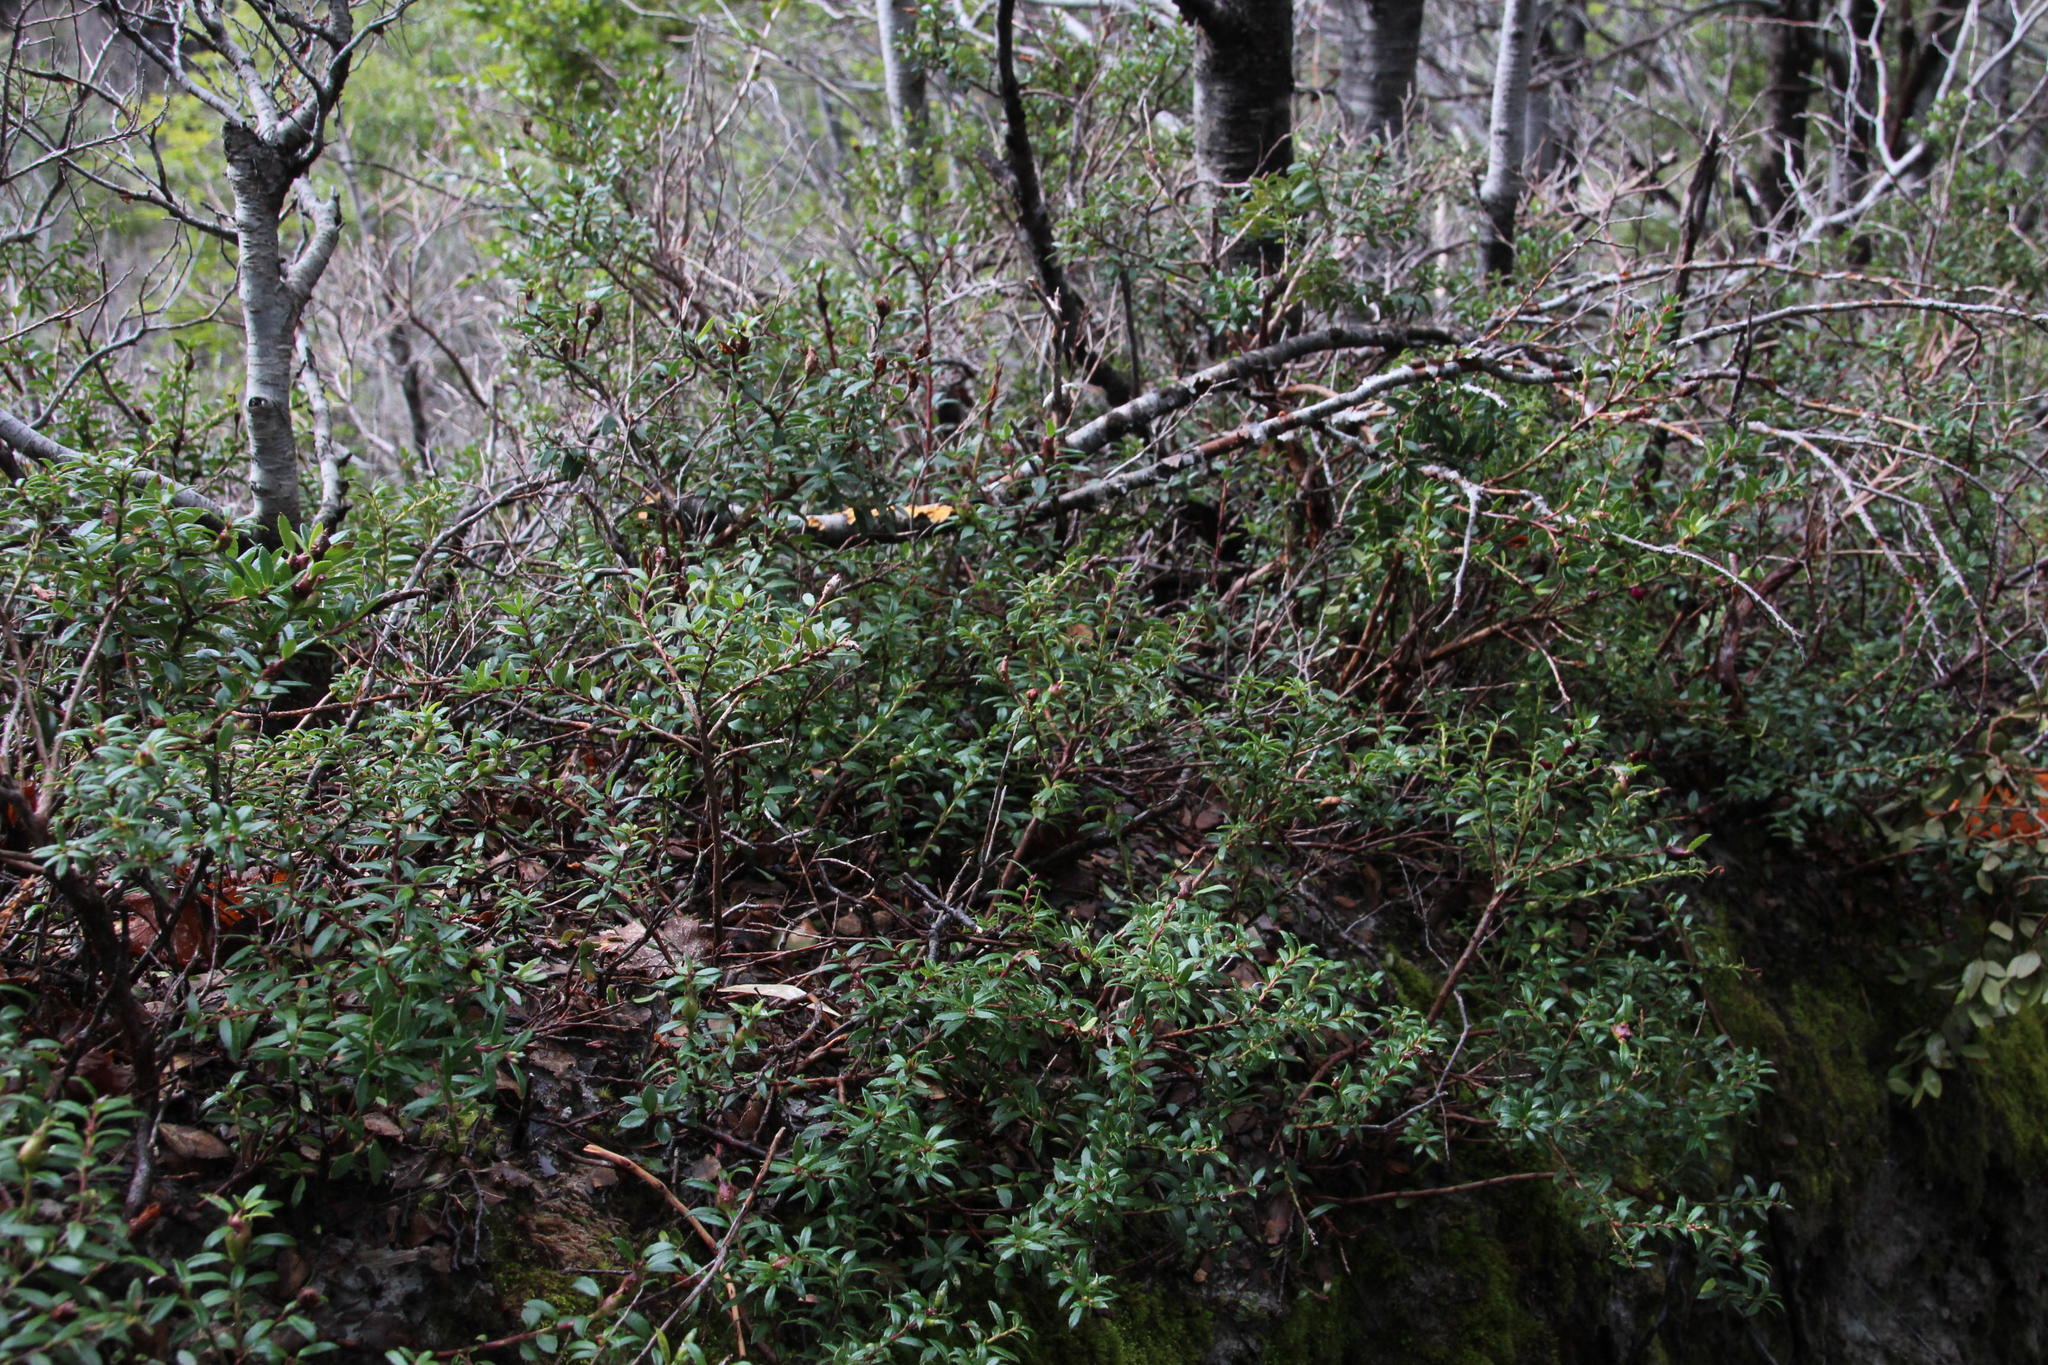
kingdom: Plantae
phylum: Tracheophyta
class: Magnoliopsida
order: Ericales
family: Ericaceae
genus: Gaultheria
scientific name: Gaultheria poeppigii
